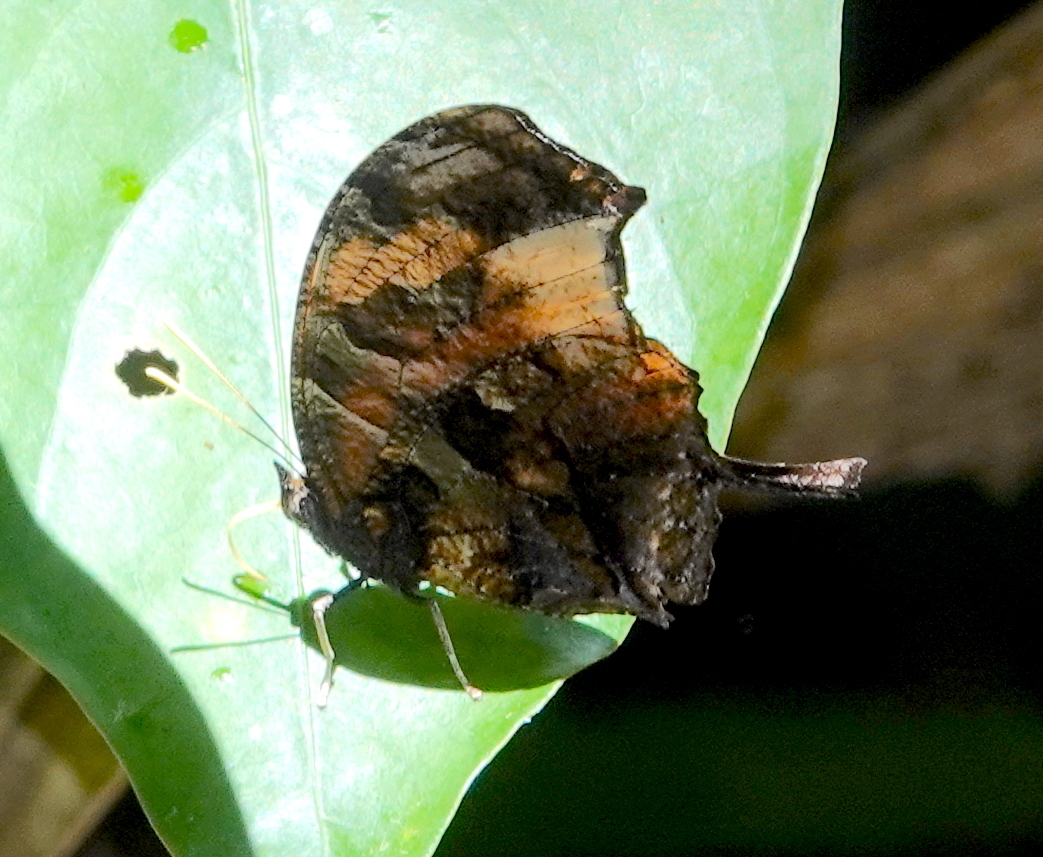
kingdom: Animalia
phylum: Arthropoda
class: Insecta
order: Lepidoptera
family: Nymphalidae
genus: Consul
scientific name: Consul fabius
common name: Tiger leafwing
